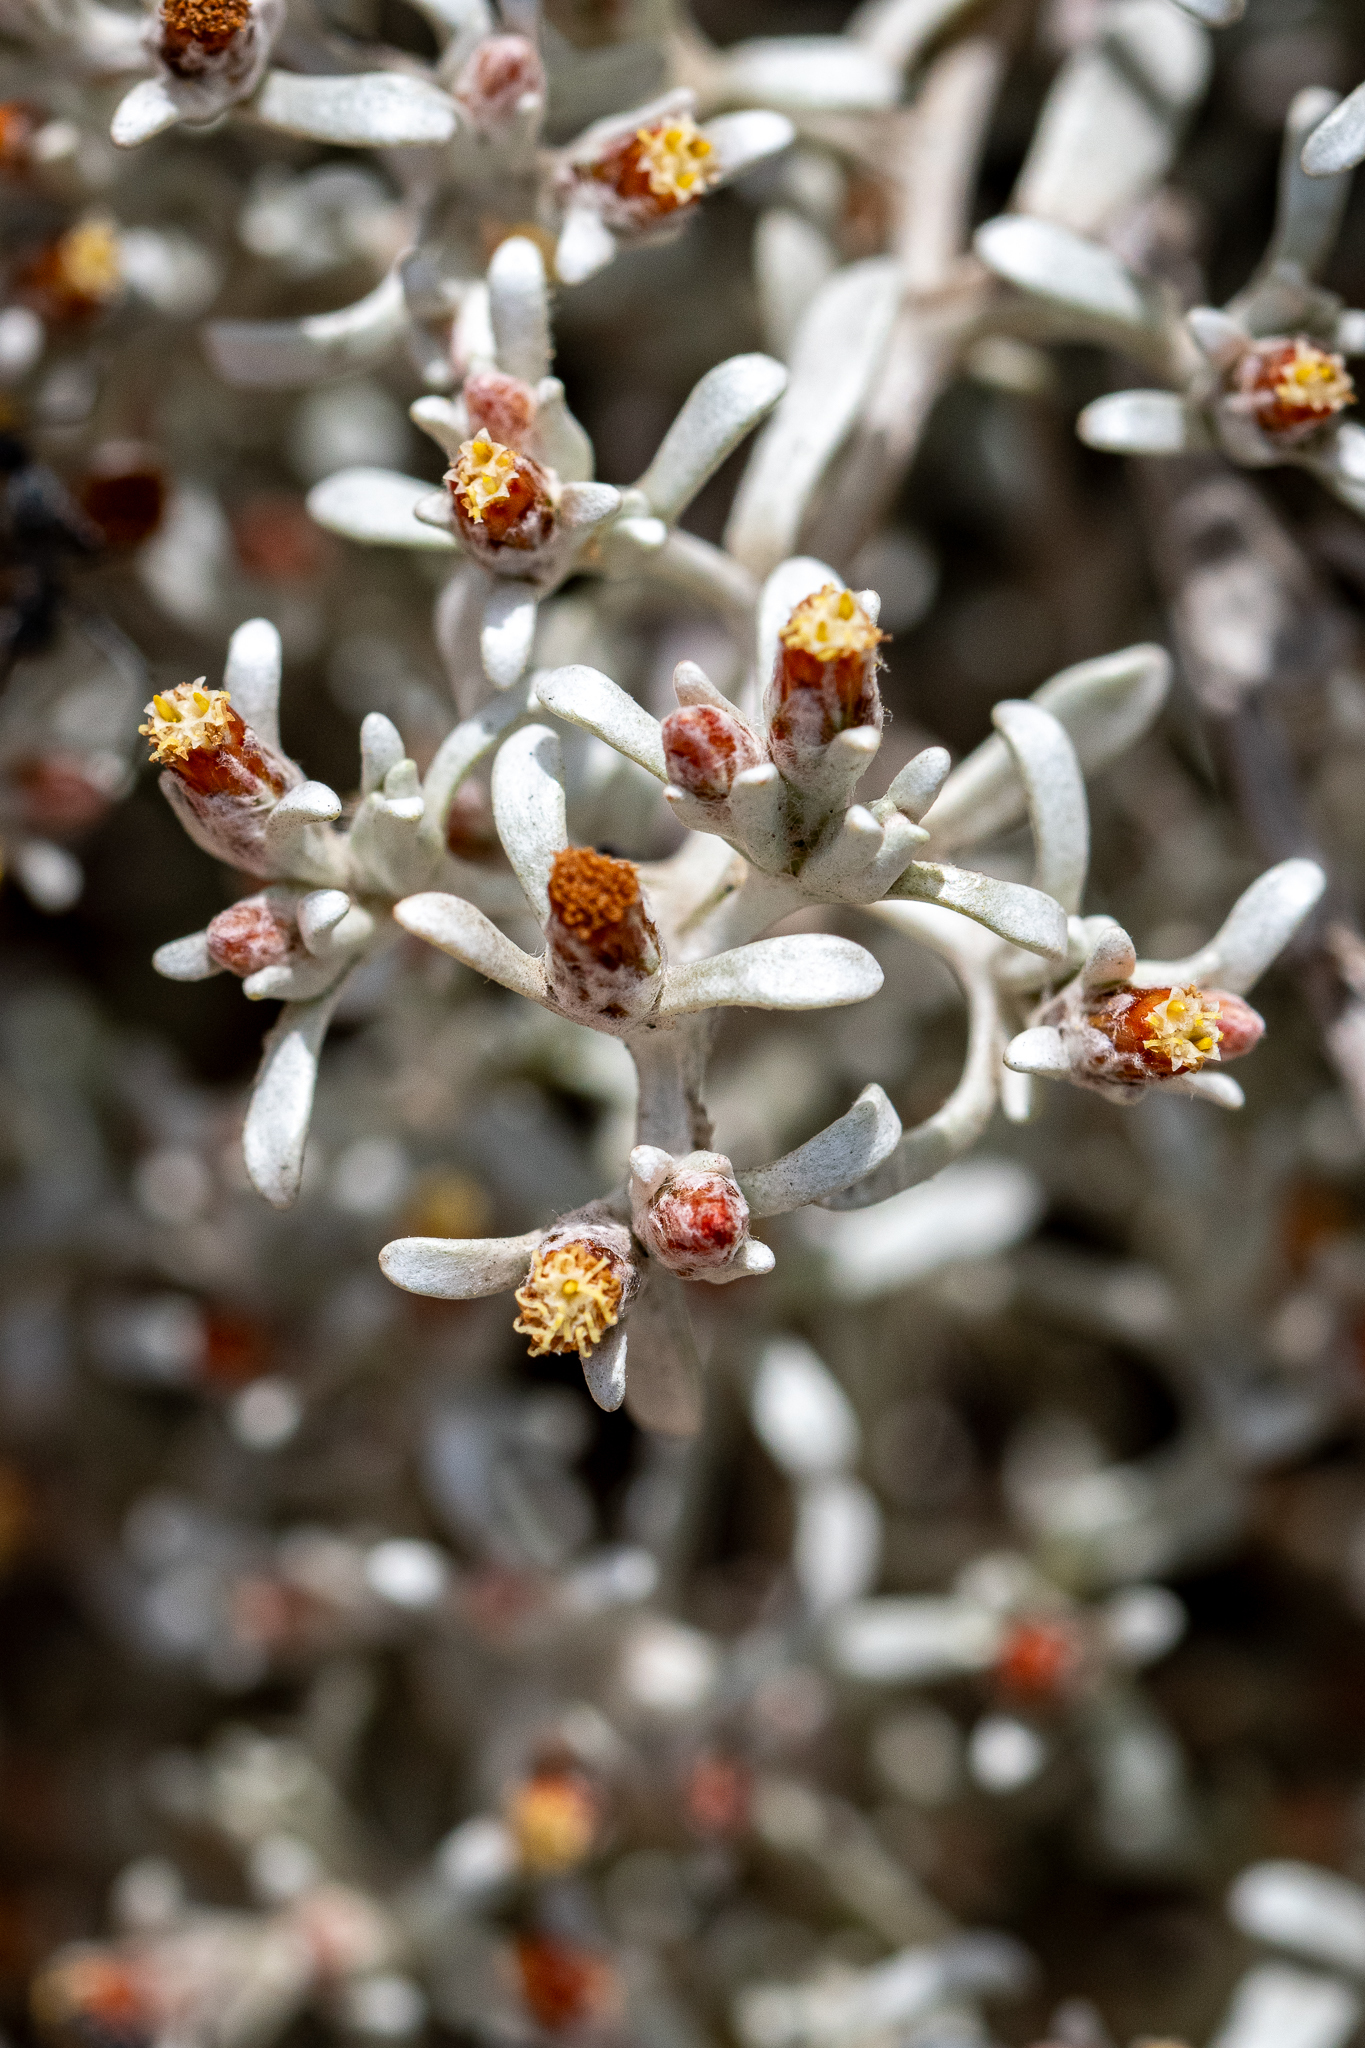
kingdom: Plantae
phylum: Tracheophyta
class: Magnoliopsida
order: Asterales
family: Asteraceae
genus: Helichrysum
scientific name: Helichrysum tinctum
